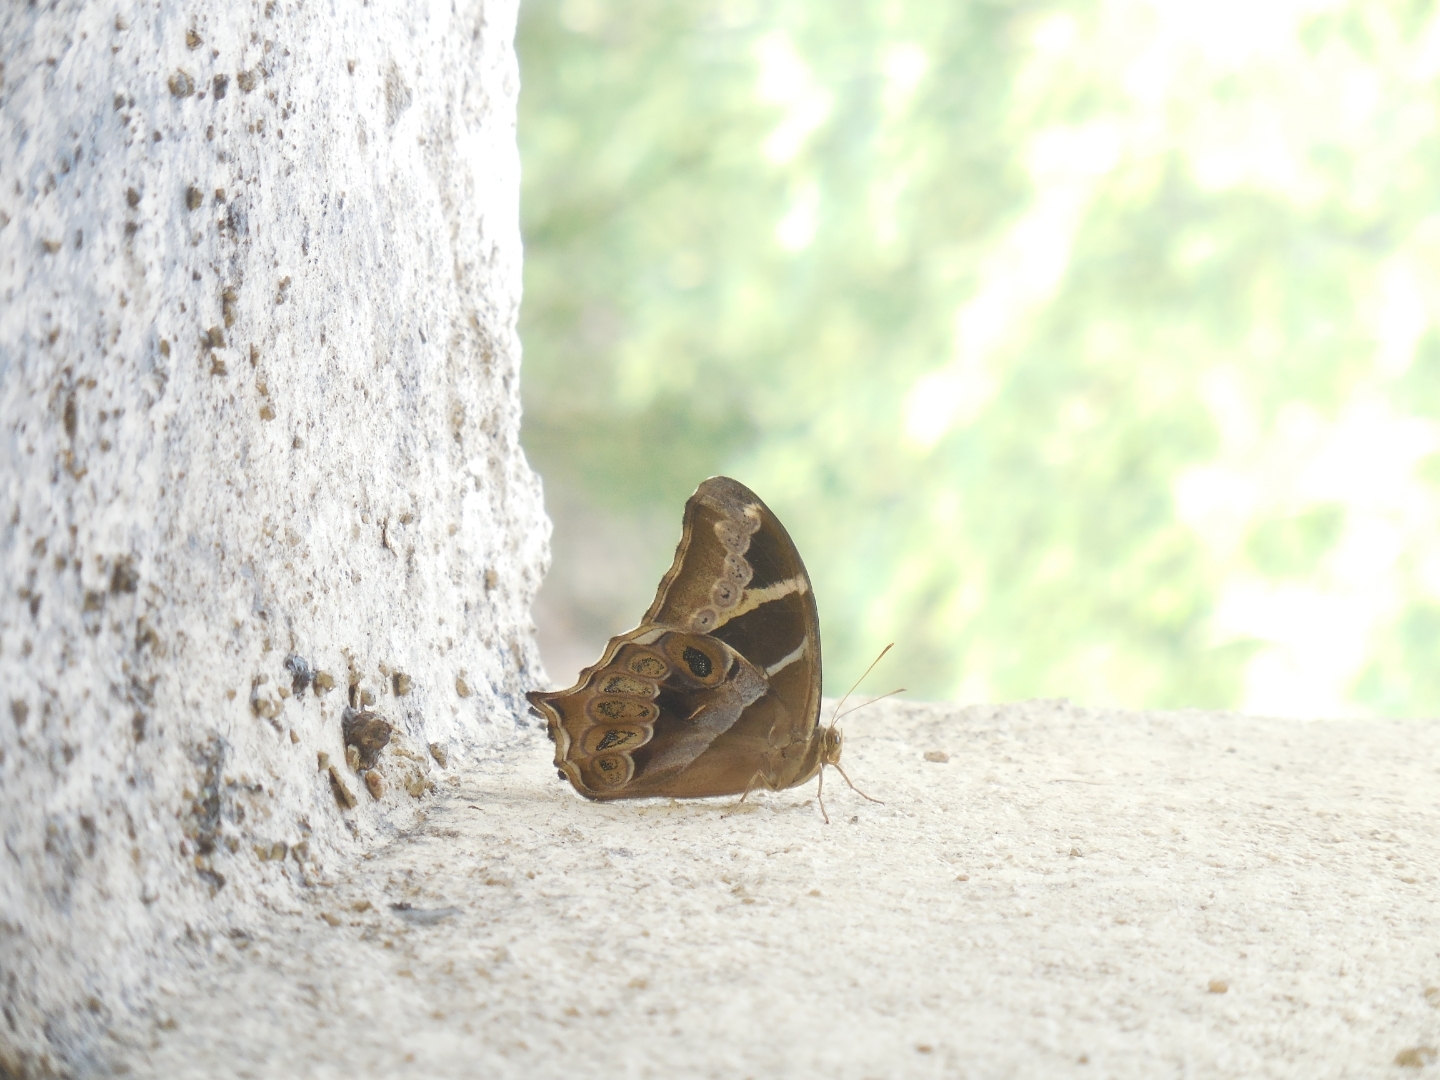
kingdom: Animalia
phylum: Arthropoda
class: Insecta
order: Lepidoptera
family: Nymphalidae
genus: Lethe
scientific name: Lethe europa
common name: Bamboo treebrown
